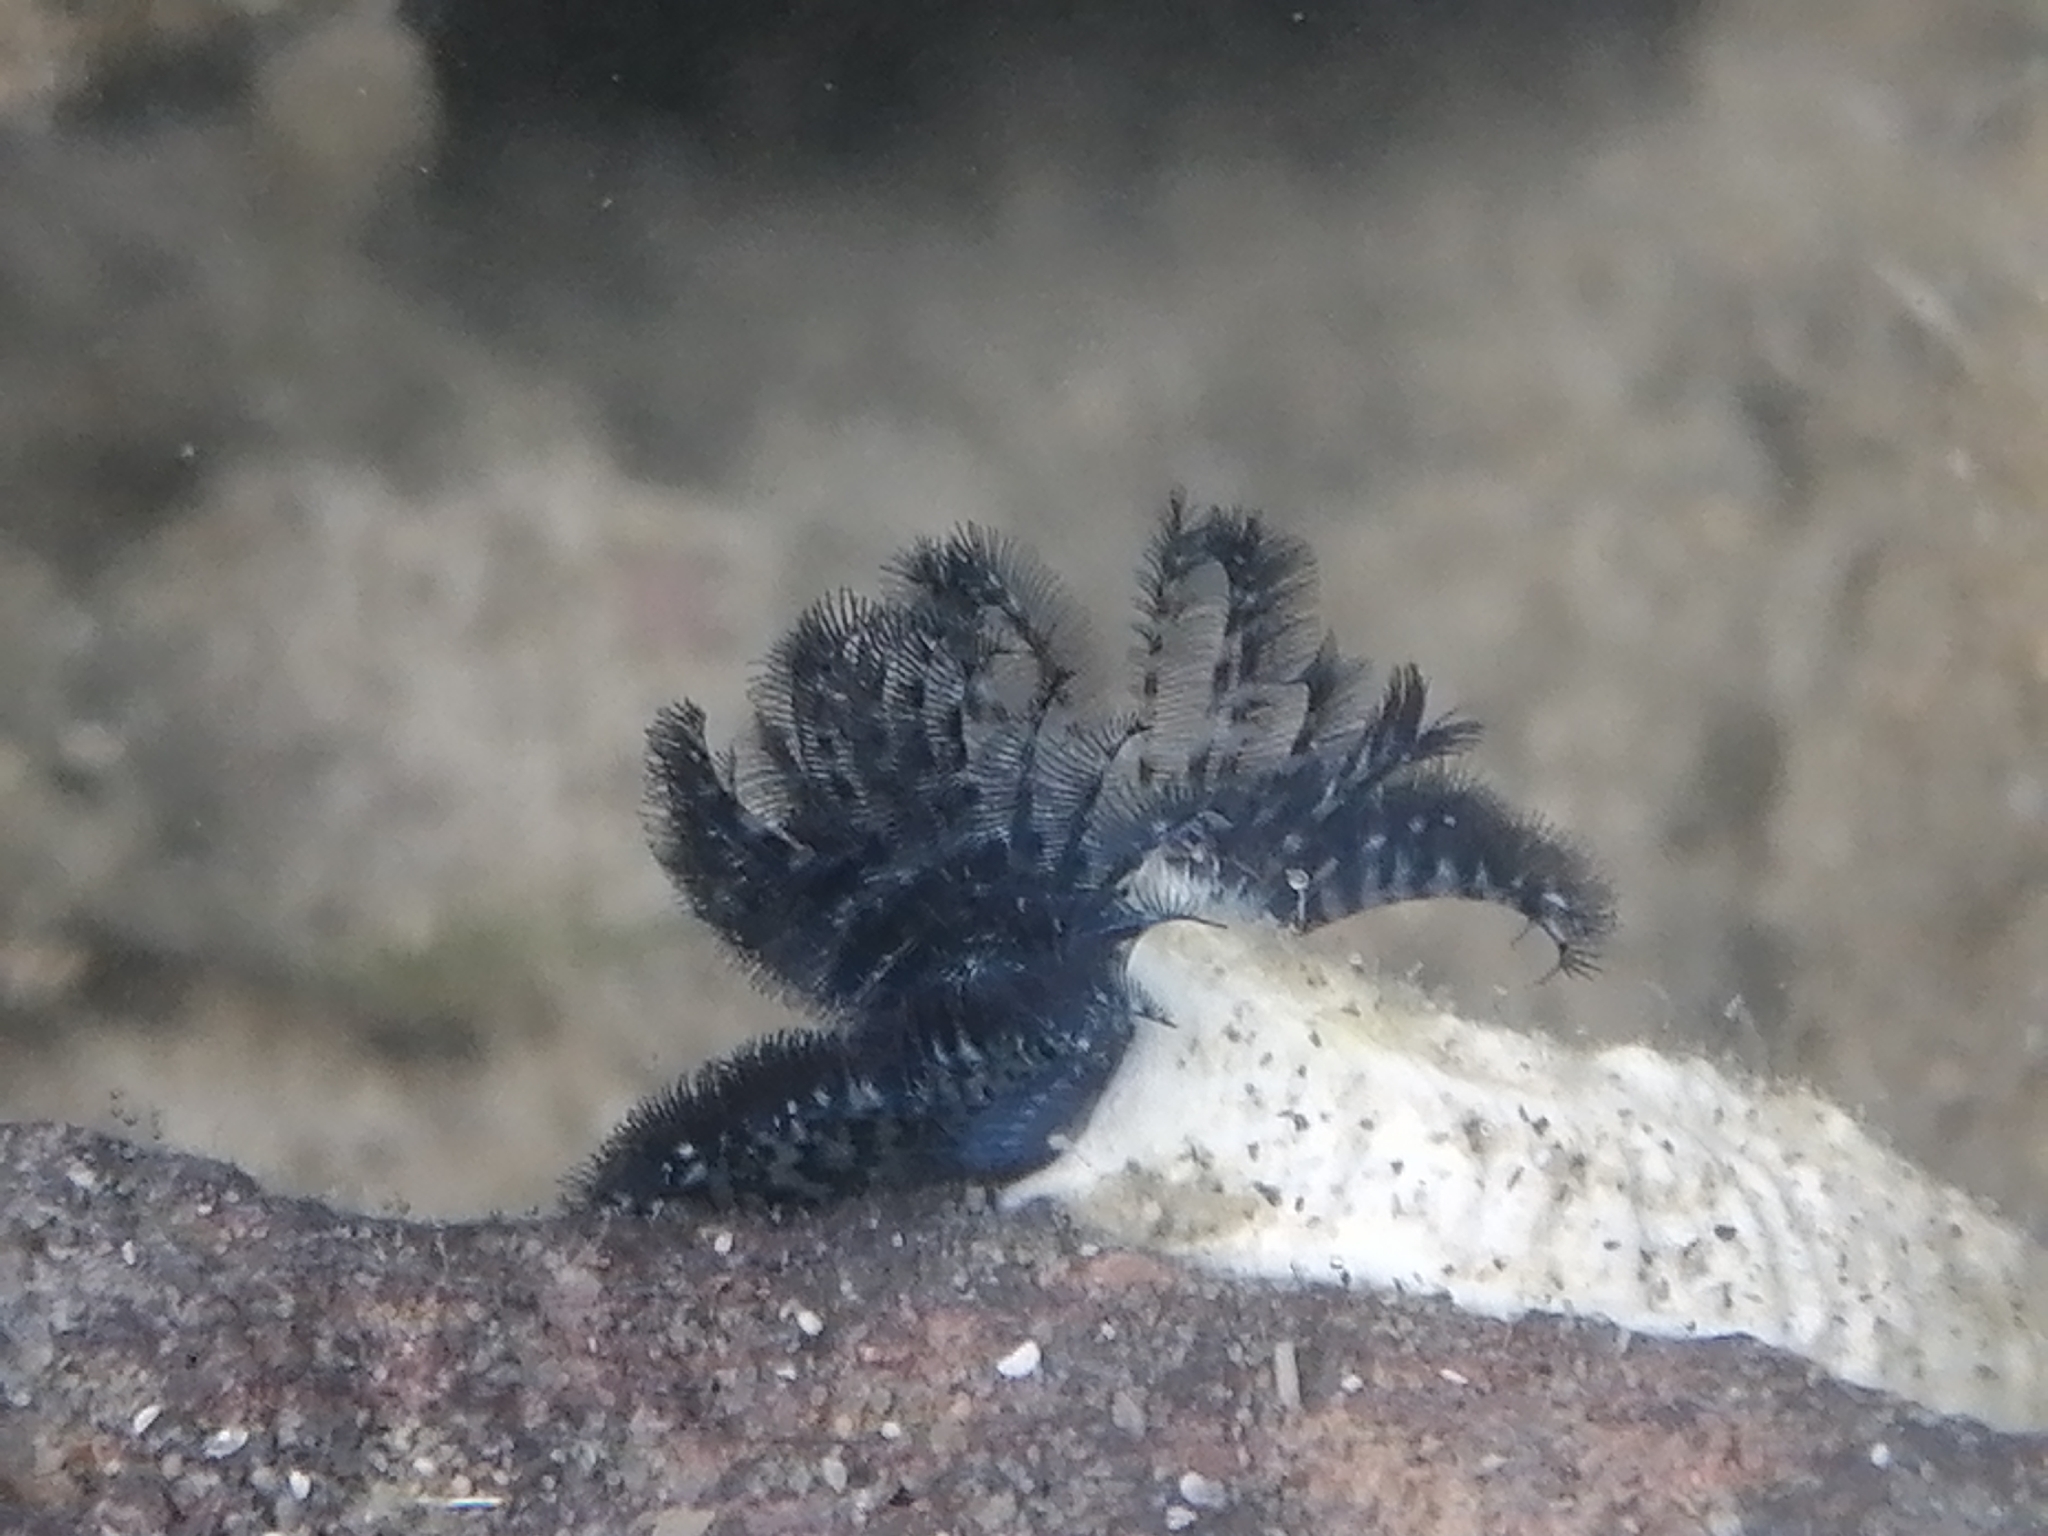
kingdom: Animalia
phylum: Annelida
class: Polychaeta
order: Sabellida
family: Serpulidae
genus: Spirobranchus
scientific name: Spirobranchus cariniferus
